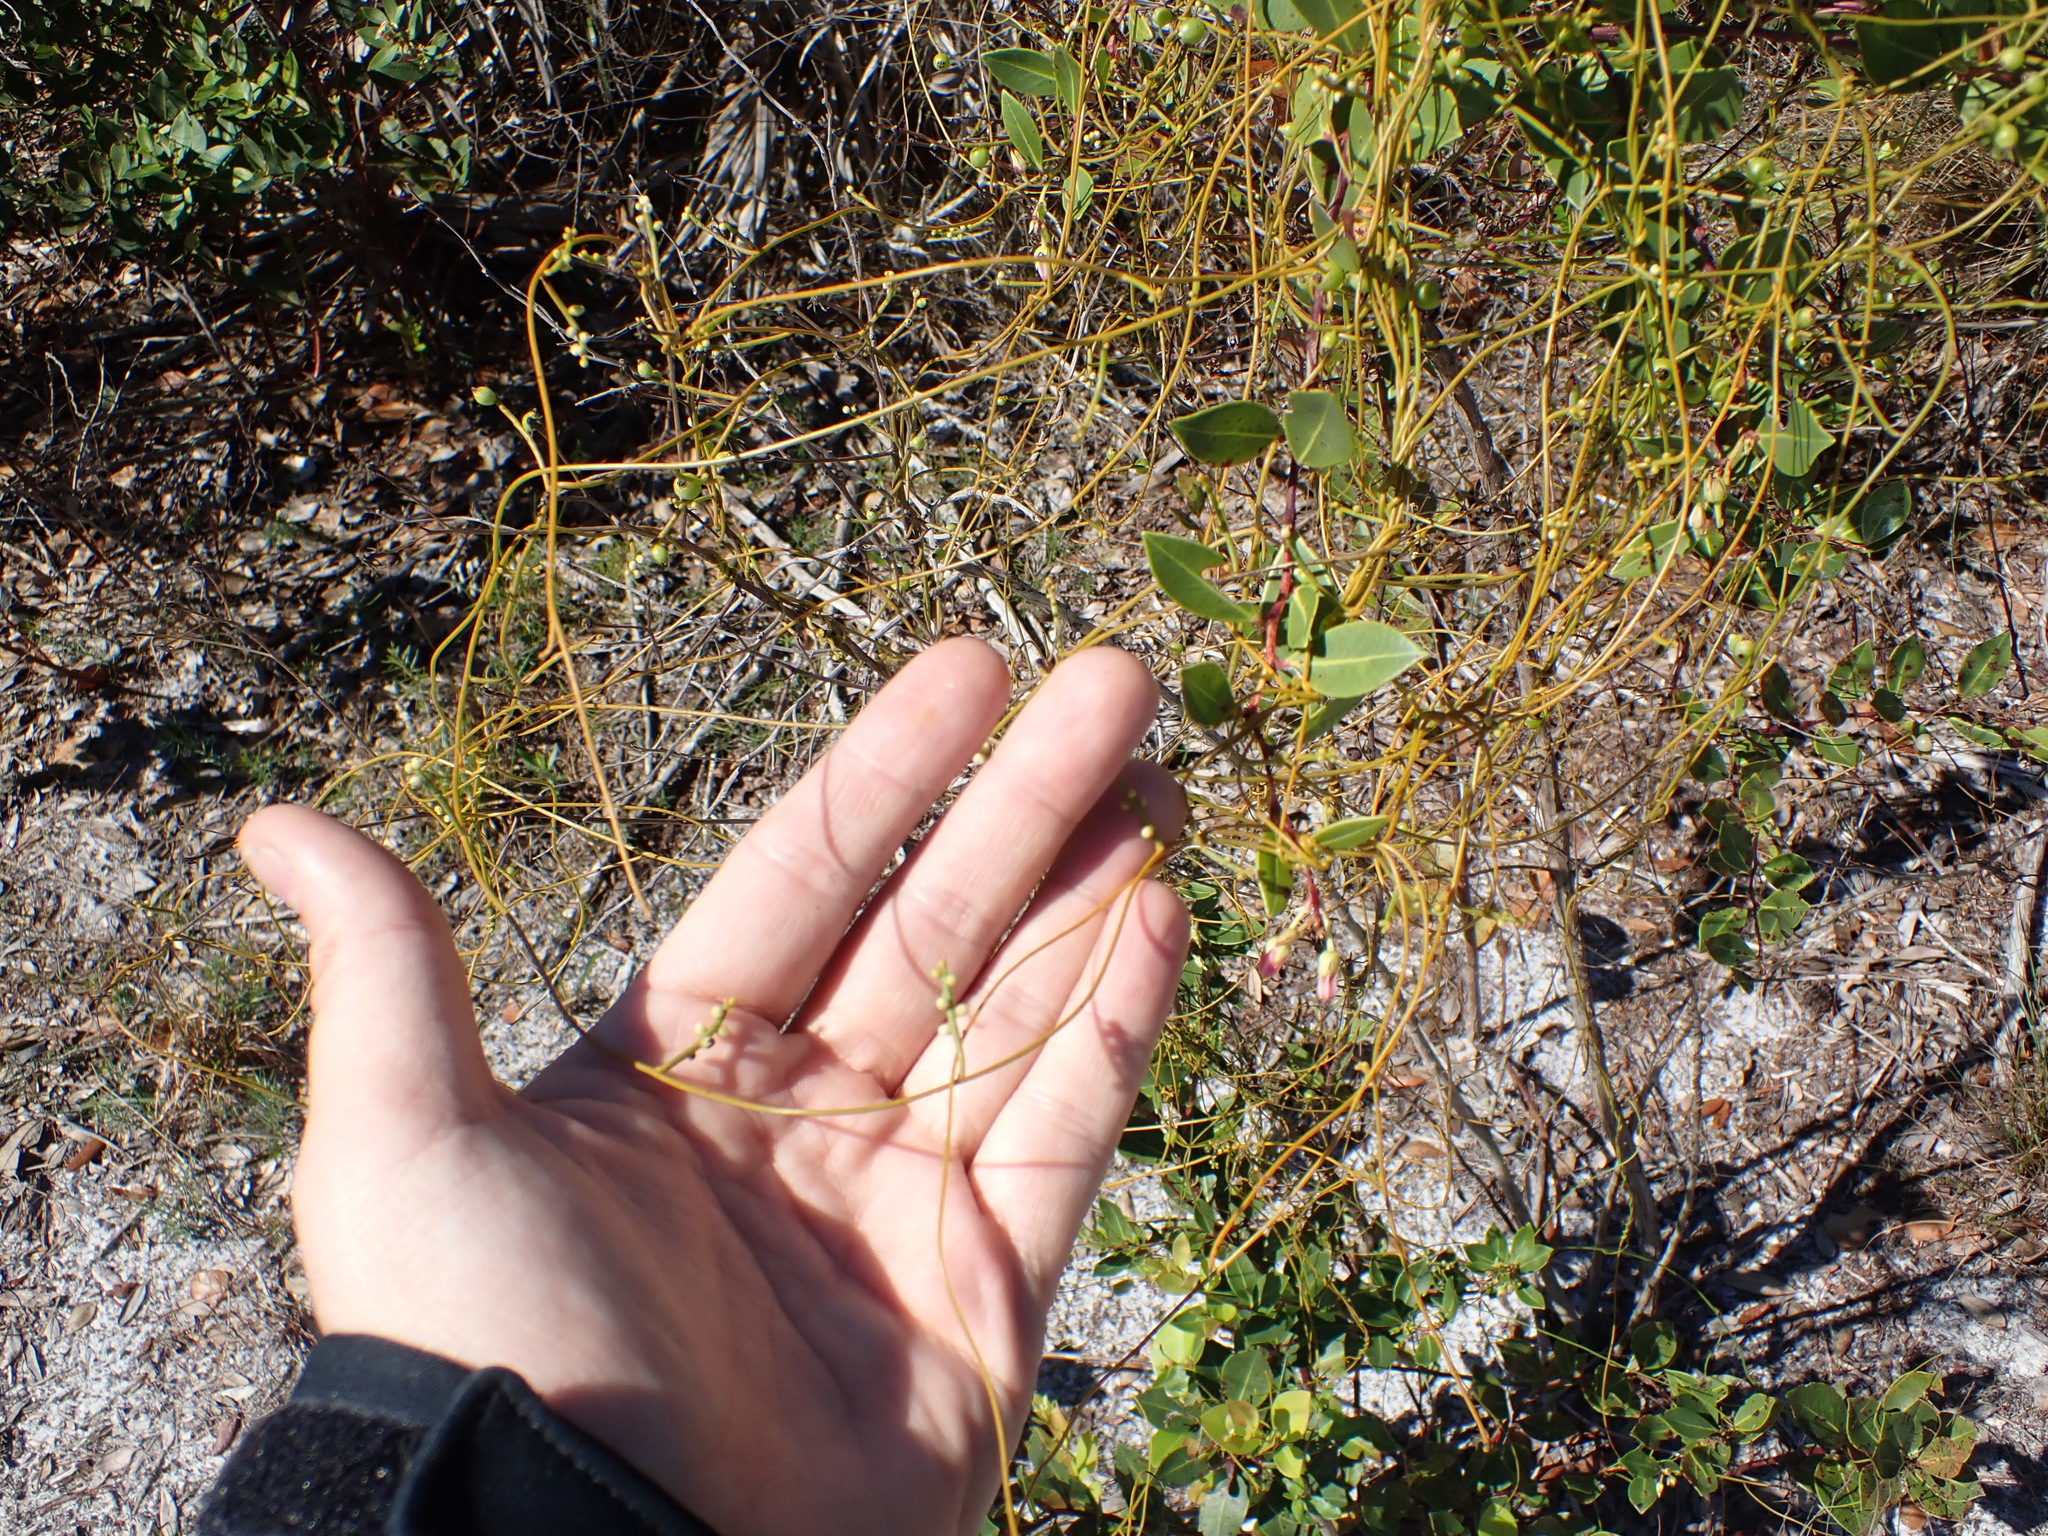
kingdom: Plantae
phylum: Tracheophyta
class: Magnoliopsida
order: Laurales
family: Lauraceae
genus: Cassytha
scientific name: Cassytha filiformis
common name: Dodder-laurel
